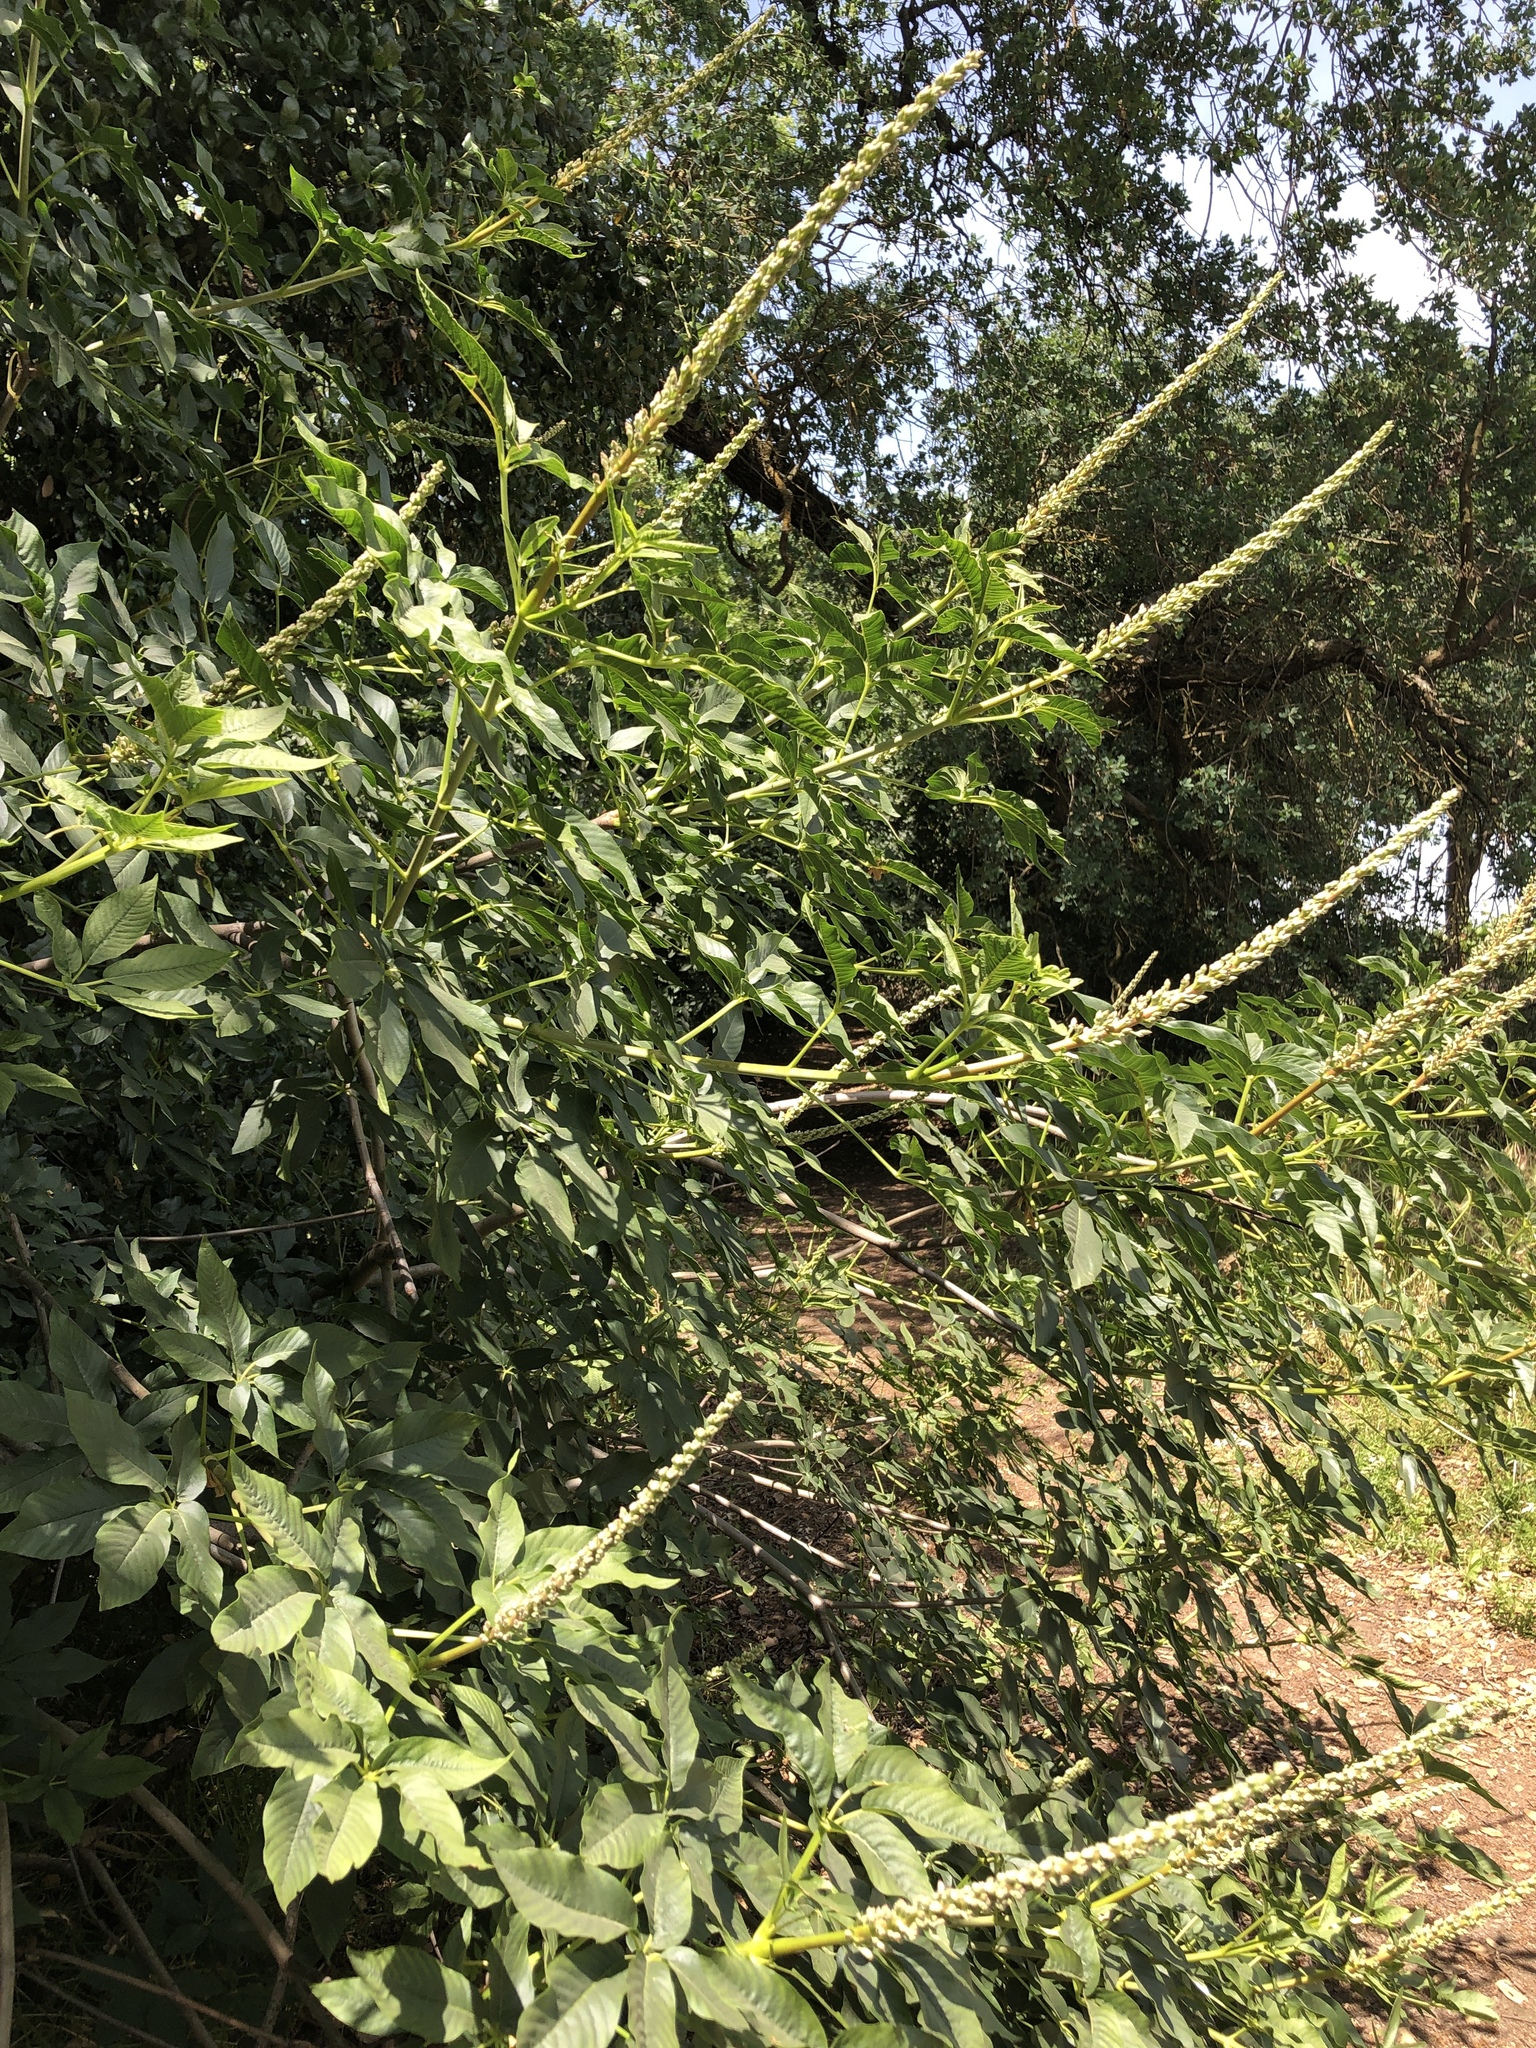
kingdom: Plantae
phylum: Tracheophyta
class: Magnoliopsida
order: Sapindales
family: Sapindaceae
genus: Aesculus
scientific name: Aesculus californica
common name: California buckeye
